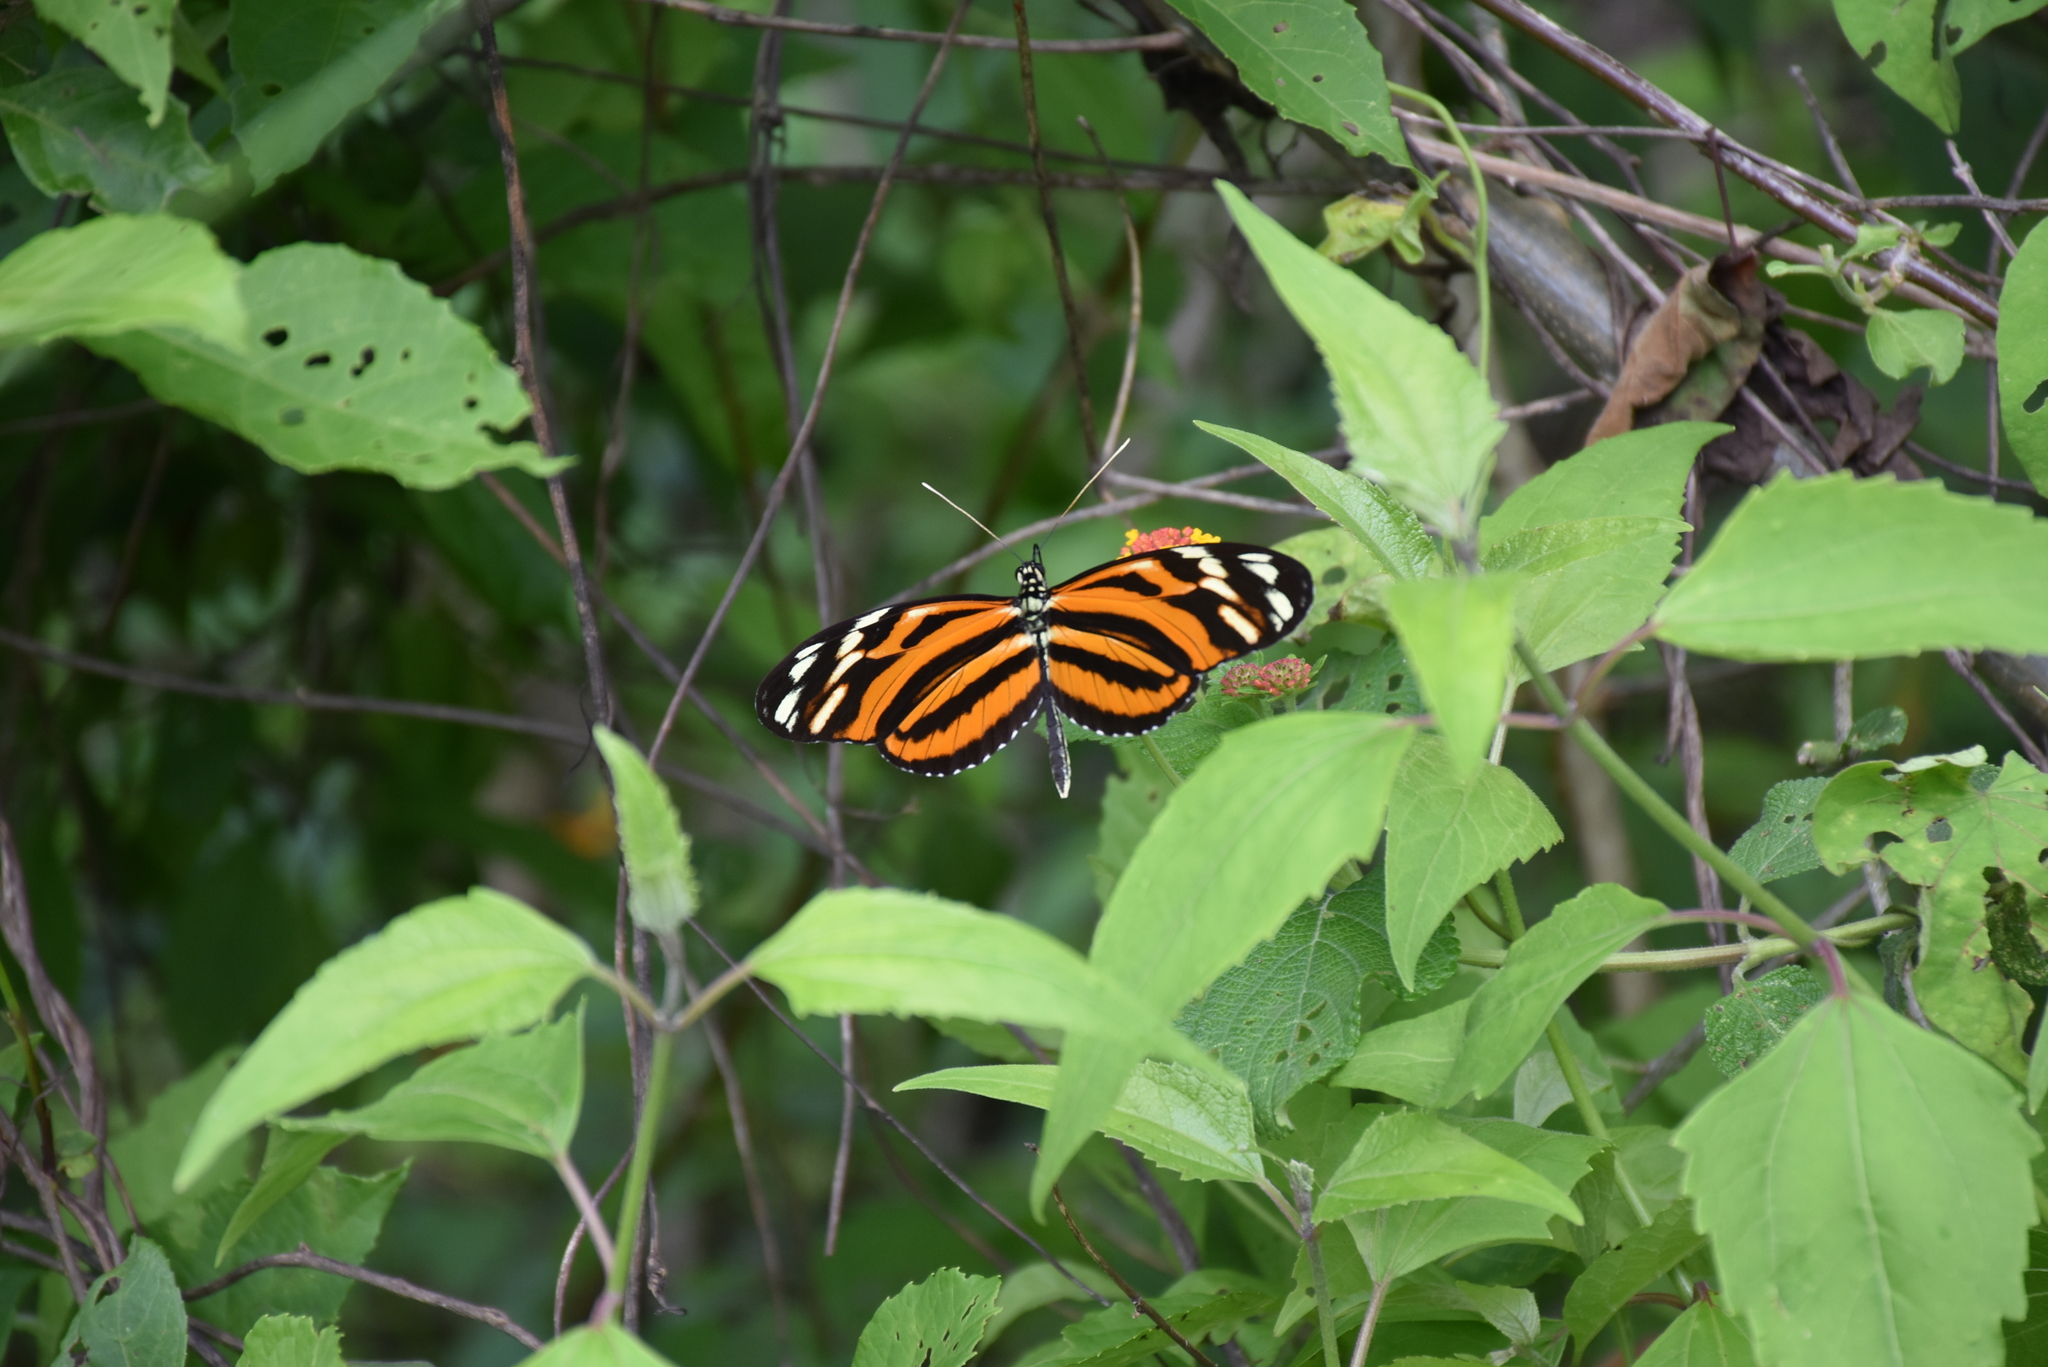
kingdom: Animalia
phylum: Arthropoda
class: Insecta
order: Lepidoptera
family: Nymphalidae
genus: Heliconius
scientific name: Heliconius ismenius
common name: Ismenius tiger
